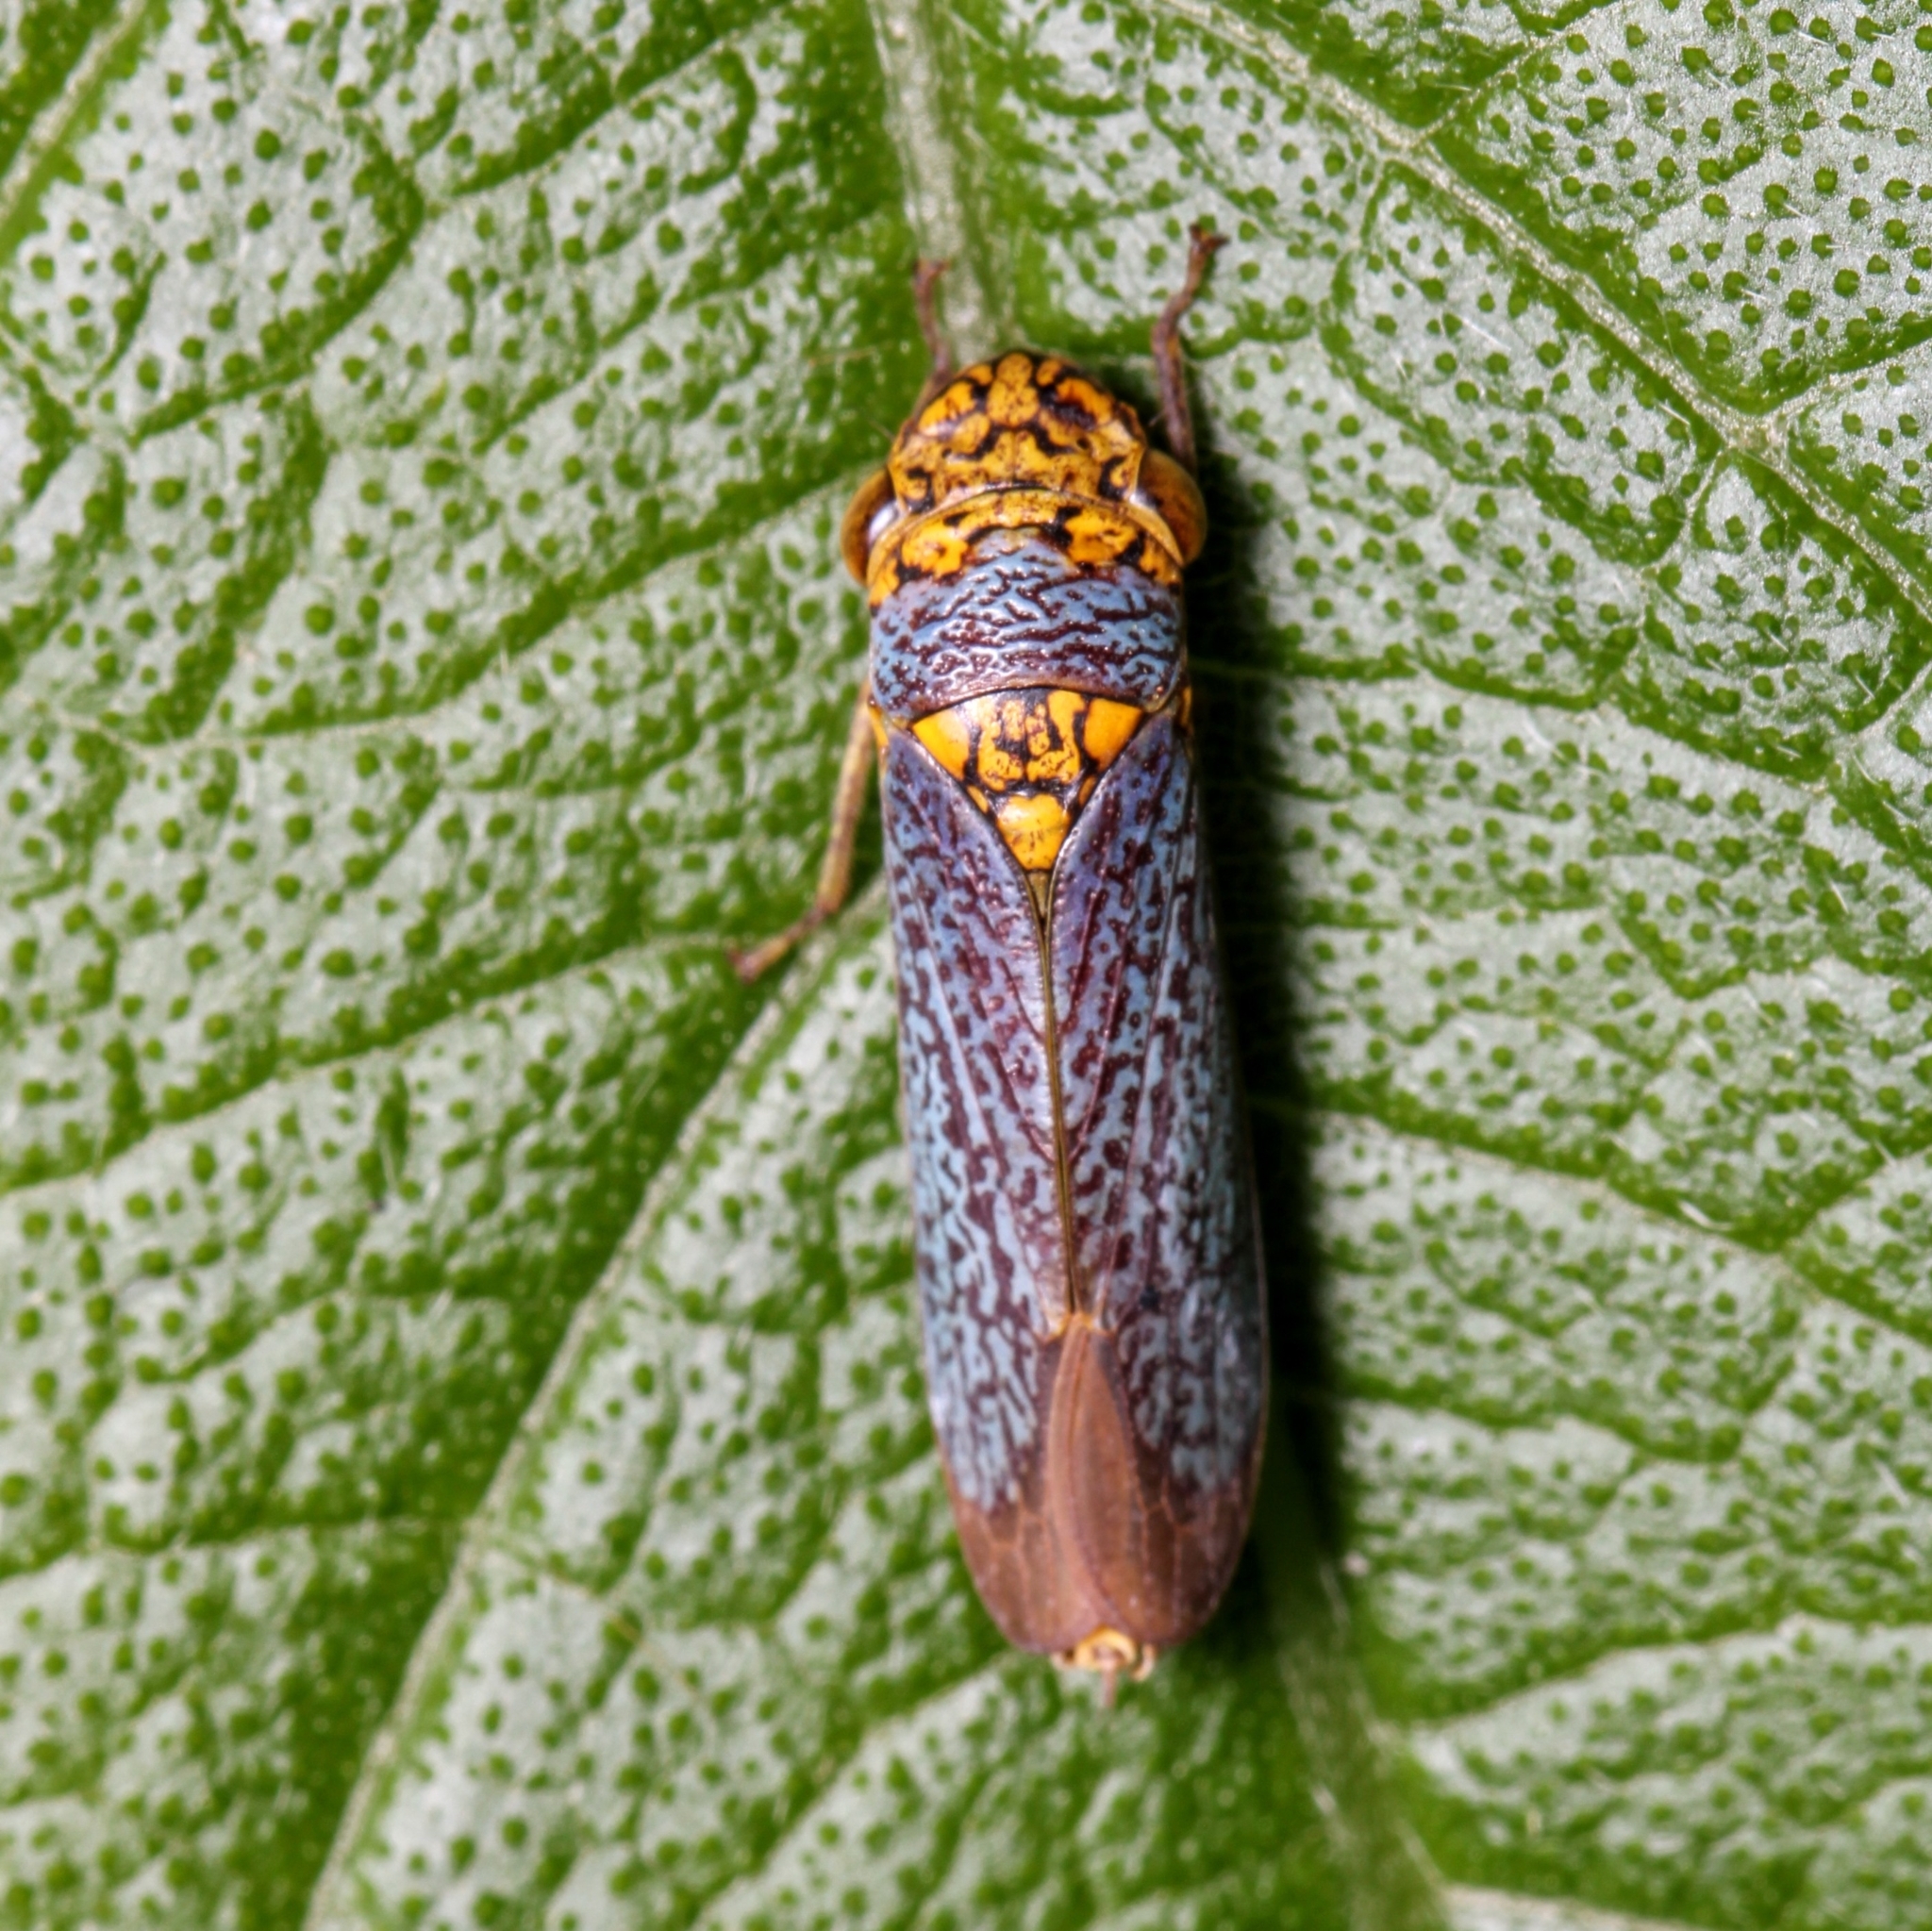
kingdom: Animalia
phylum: Arthropoda
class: Insecta
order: Hemiptera
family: Cicadellidae
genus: Oncometopia
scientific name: Oncometopia orbona
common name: Broad-headed sharpshooter
